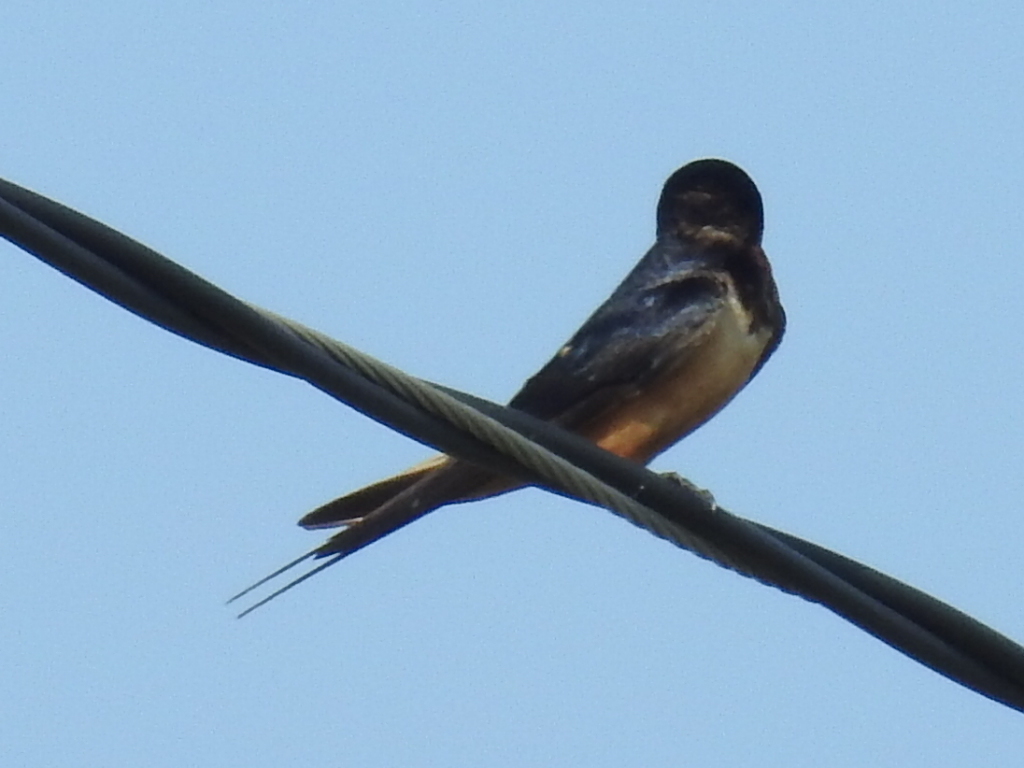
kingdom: Animalia
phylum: Chordata
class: Aves
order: Passeriformes
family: Hirundinidae
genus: Hirundo
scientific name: Hirundo rustica
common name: Barn swallow
